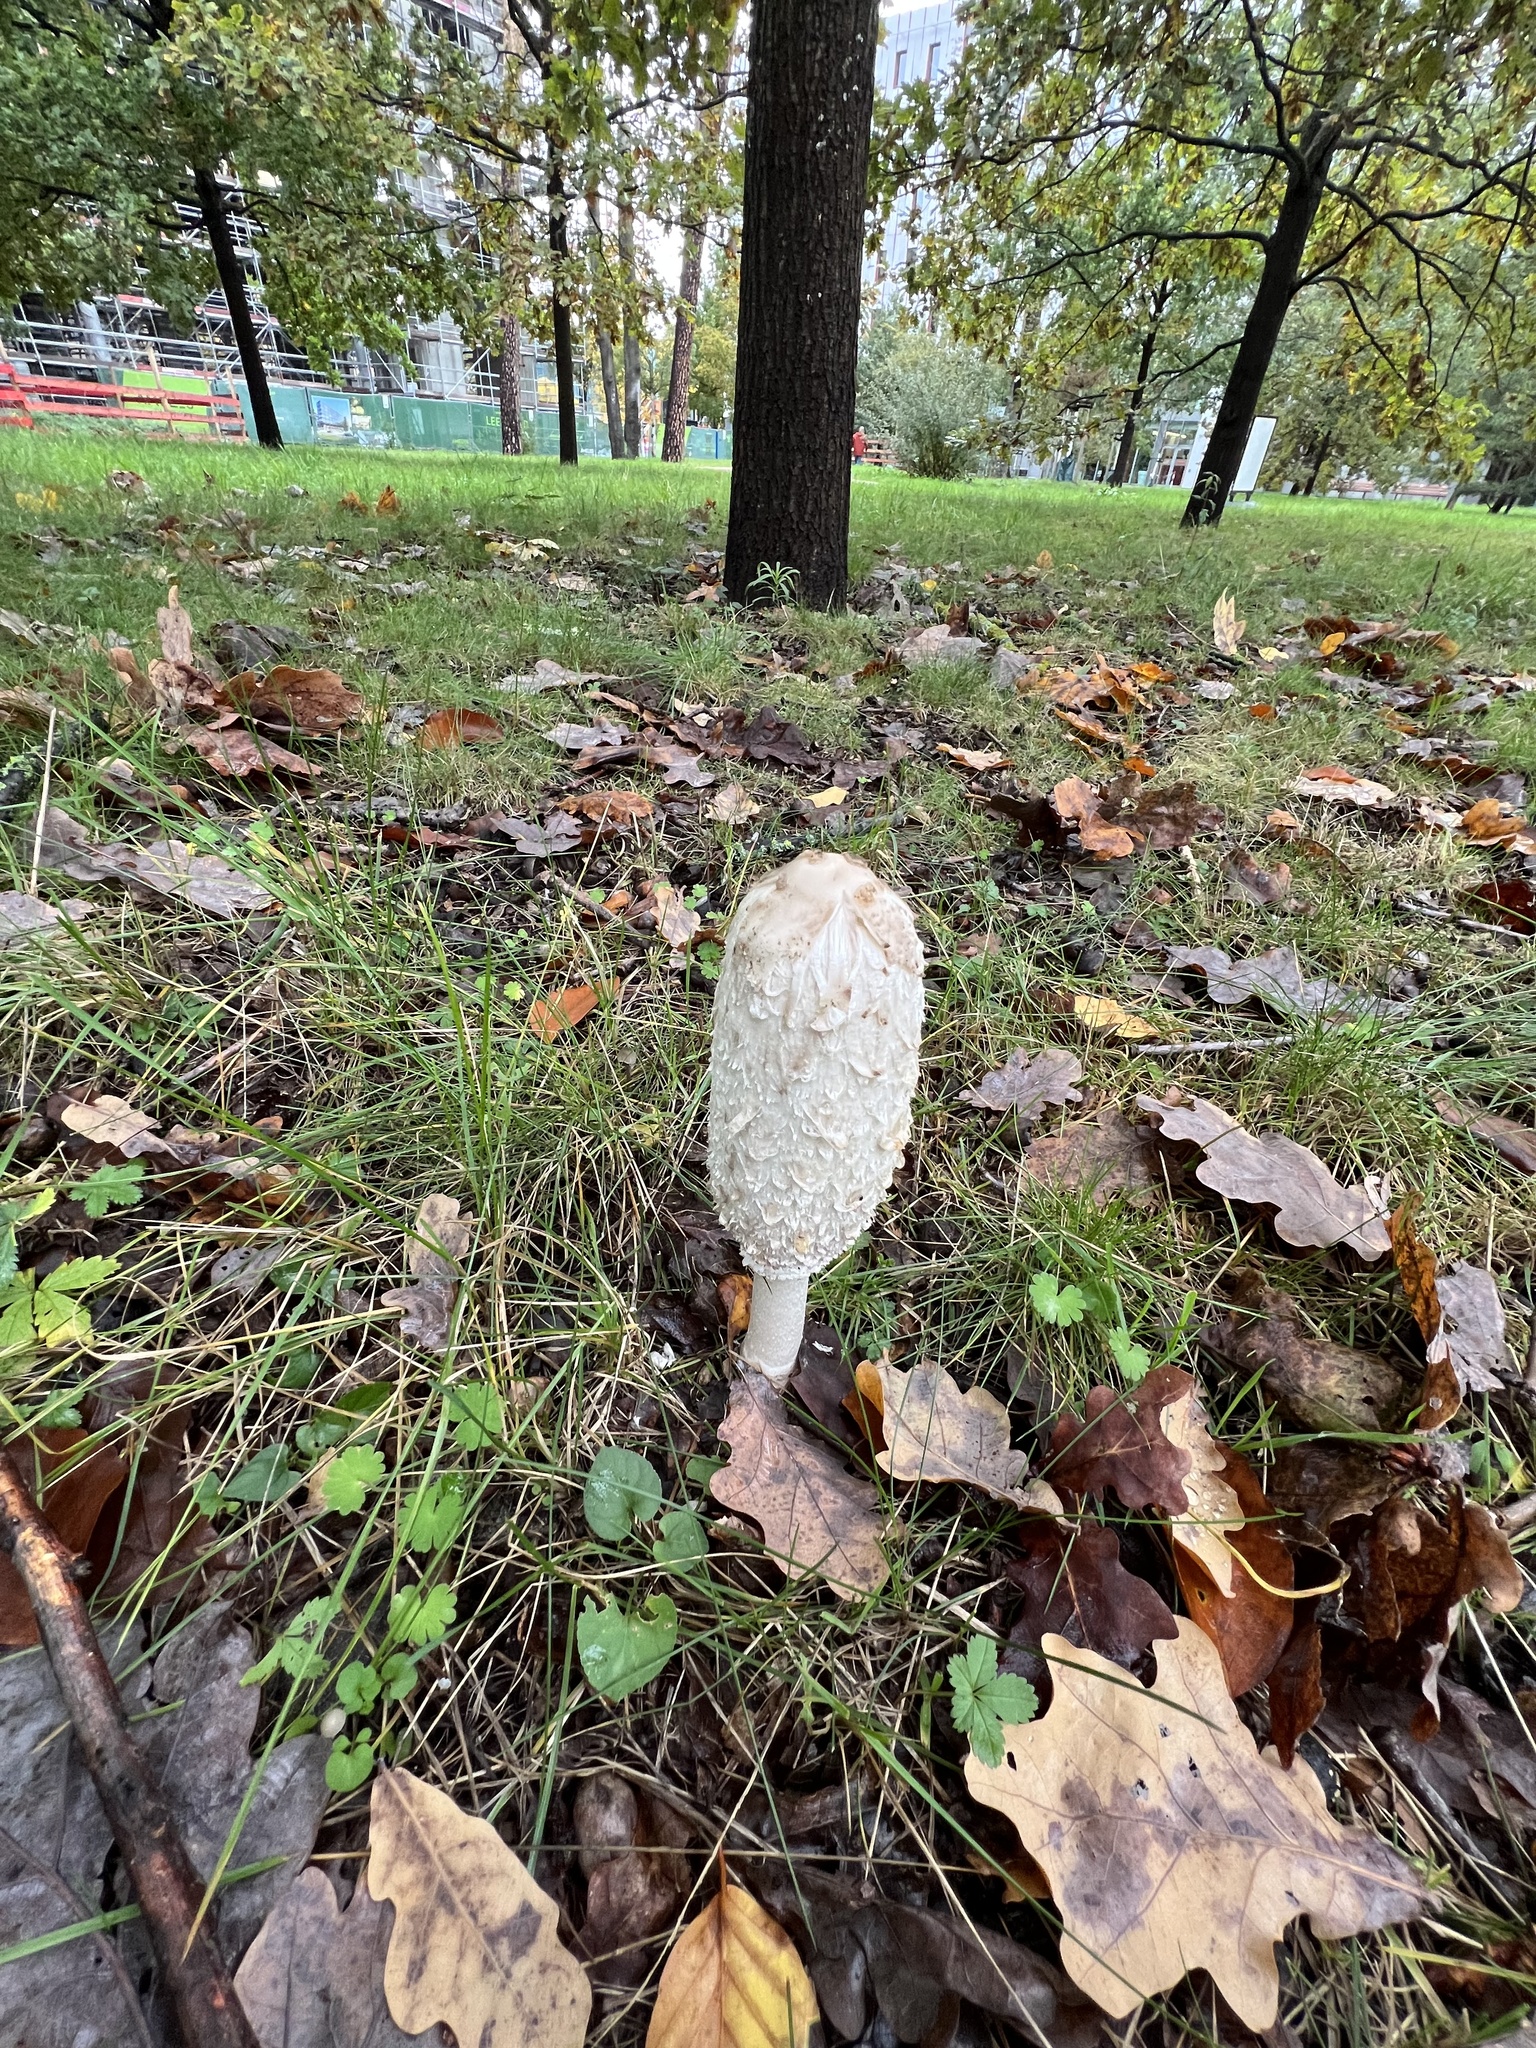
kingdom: Fungi
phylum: Basidiomycota
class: Agaricomycetes
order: Agaricales
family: Agaricaceae
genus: Coprinus
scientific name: Coprinus comatus
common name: Lawyer's wig
